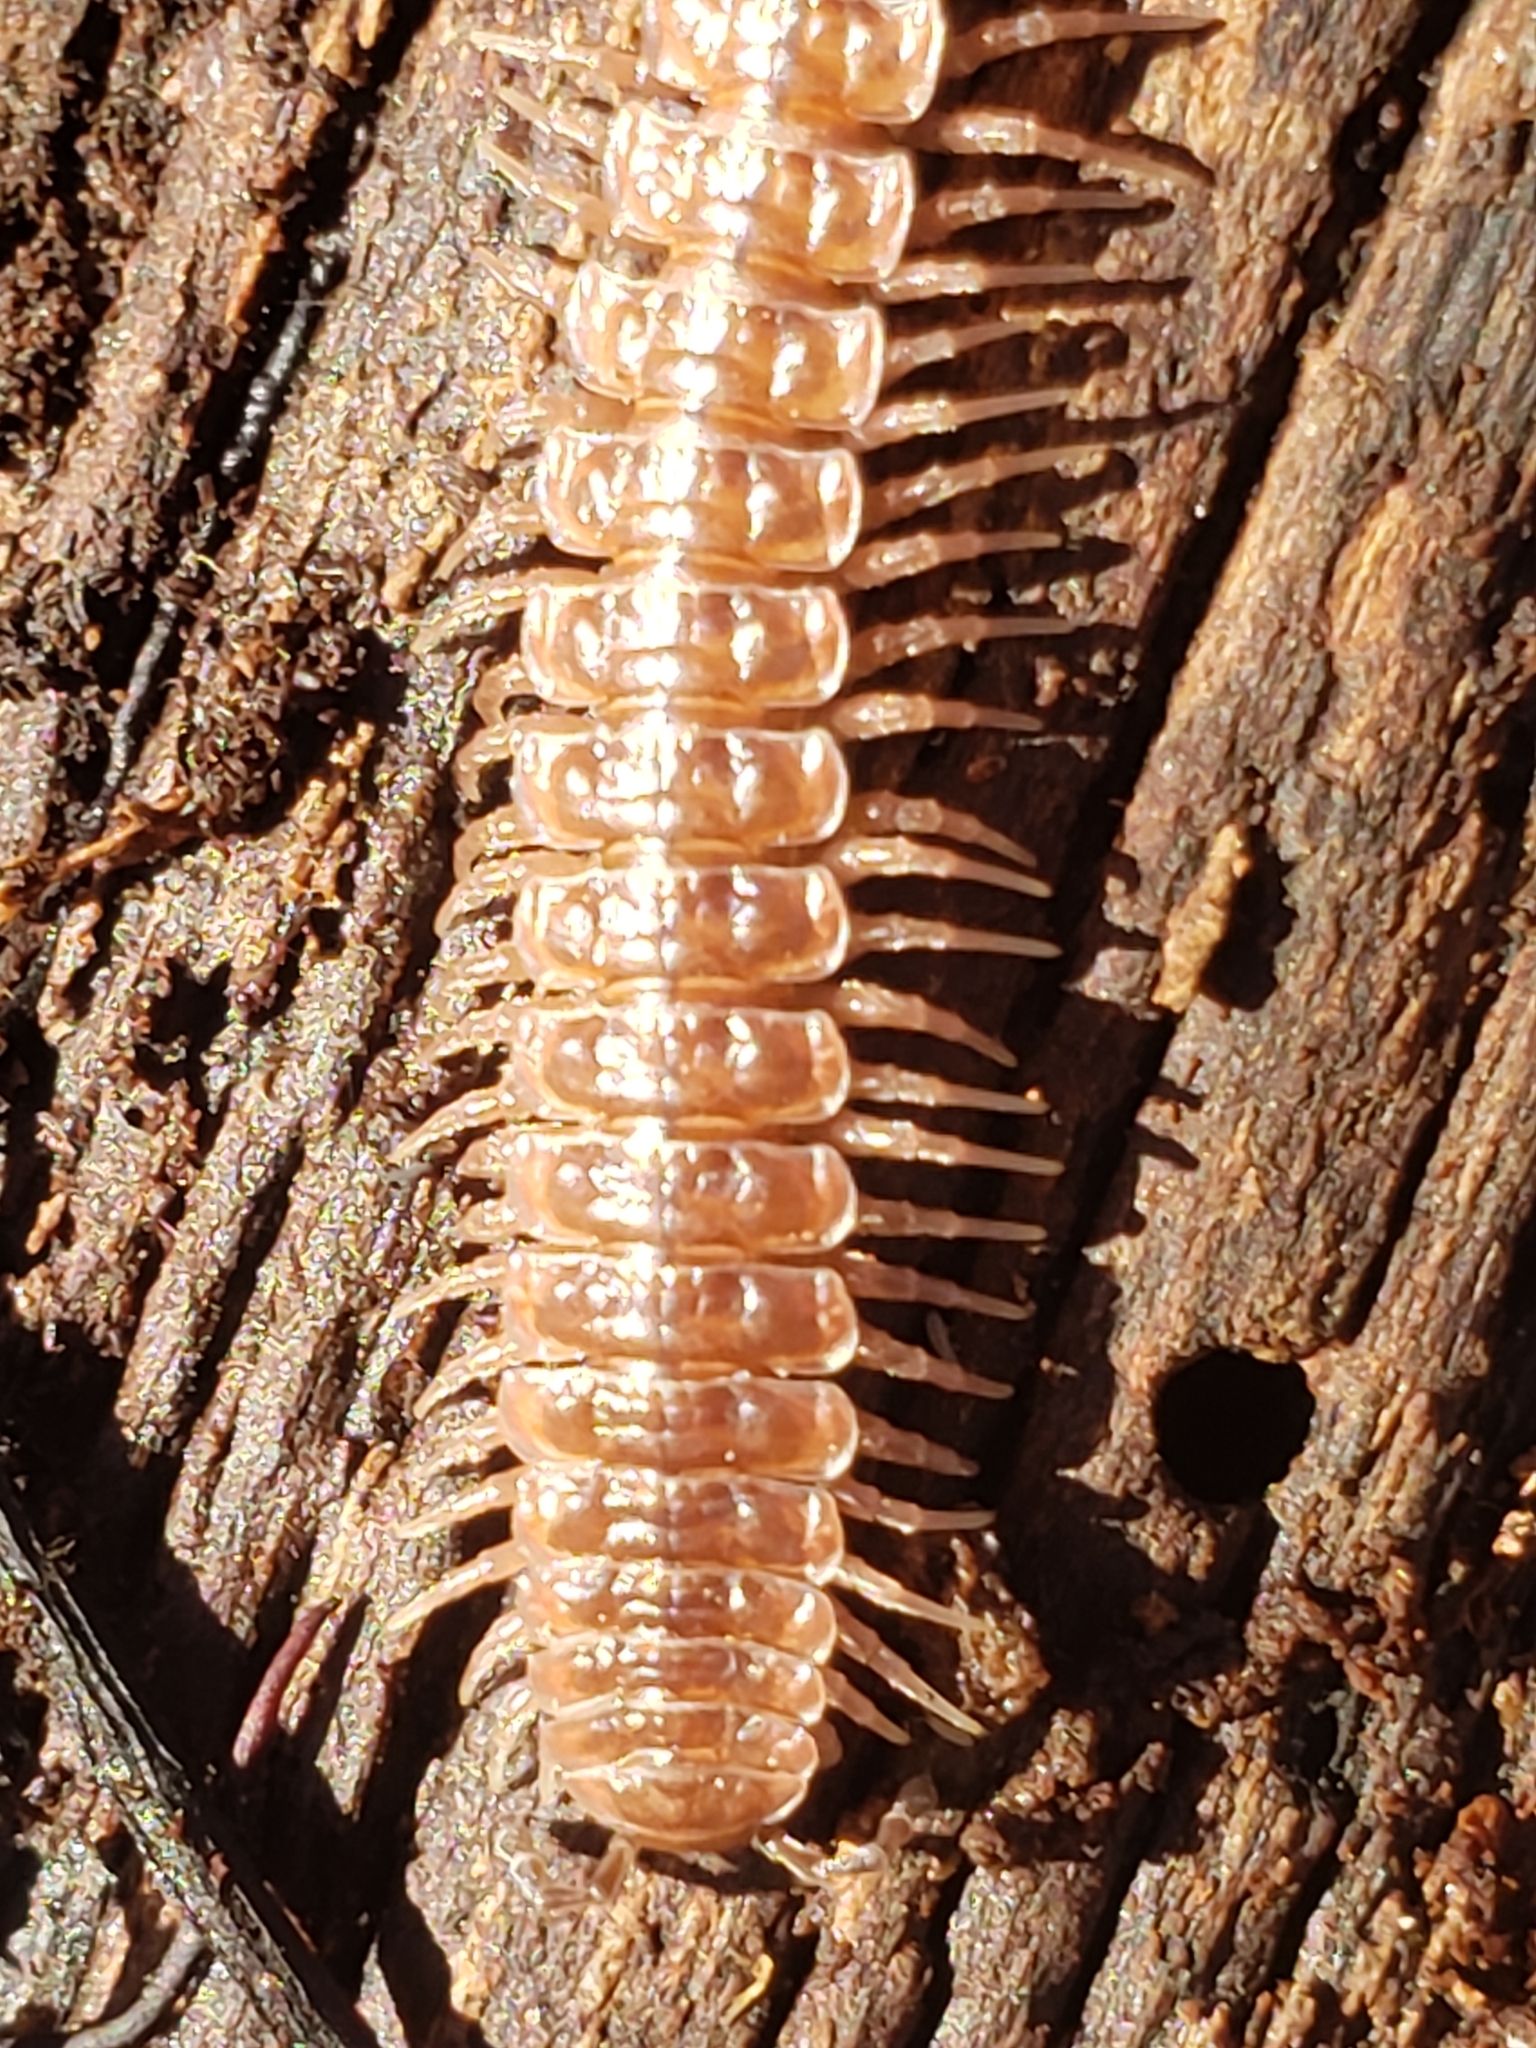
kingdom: Animalia
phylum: Arthropoda
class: Diplopoda
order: Polydesmida
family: Polydesmidae
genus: Pseudopolydesmus
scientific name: Pseudopolydesmus serratus
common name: Common pink flat-back millipede
